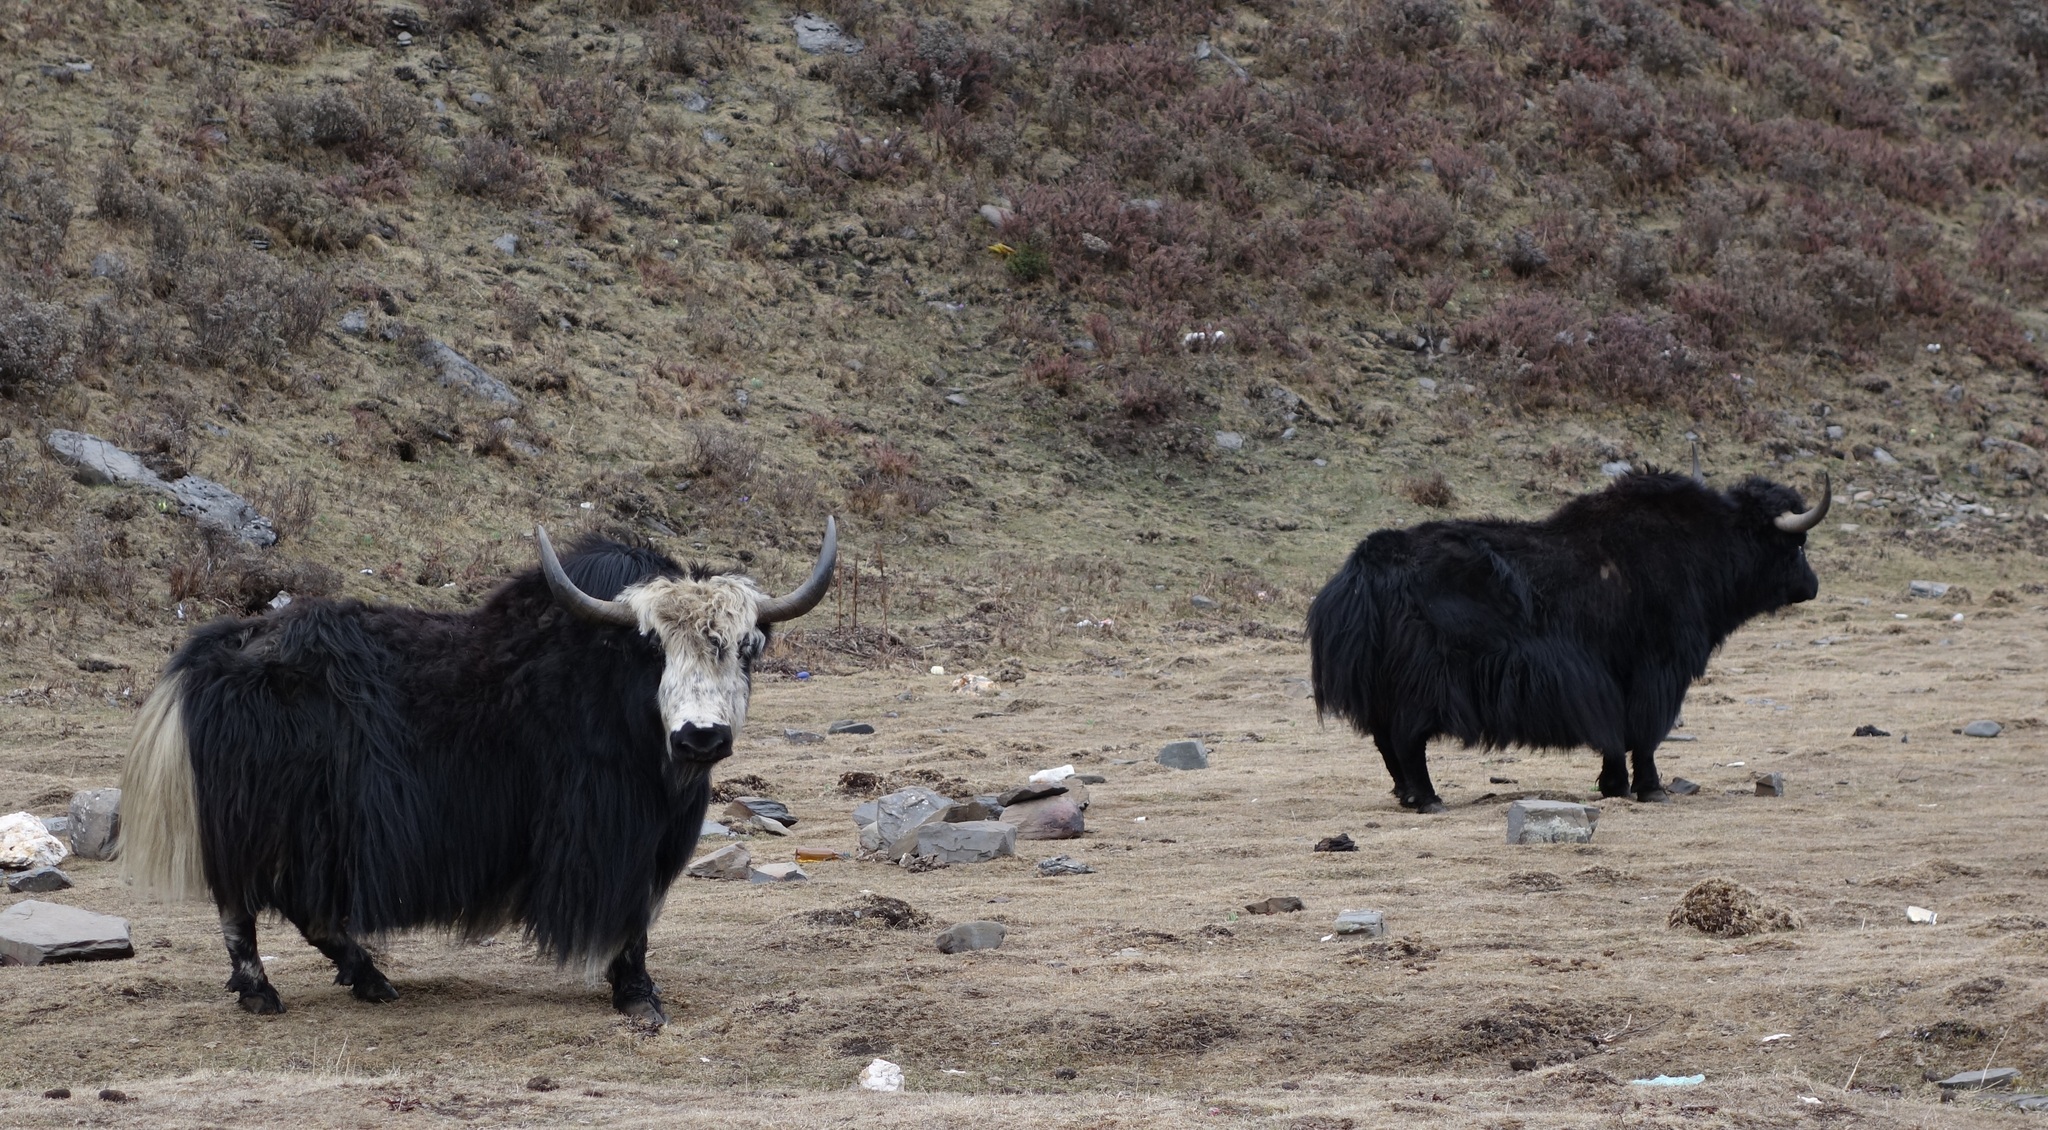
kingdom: Animalia
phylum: Chordata
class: Mammalia
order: Artiodactyla
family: Bovidae
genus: Bos
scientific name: Bos grunniens
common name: Yak
